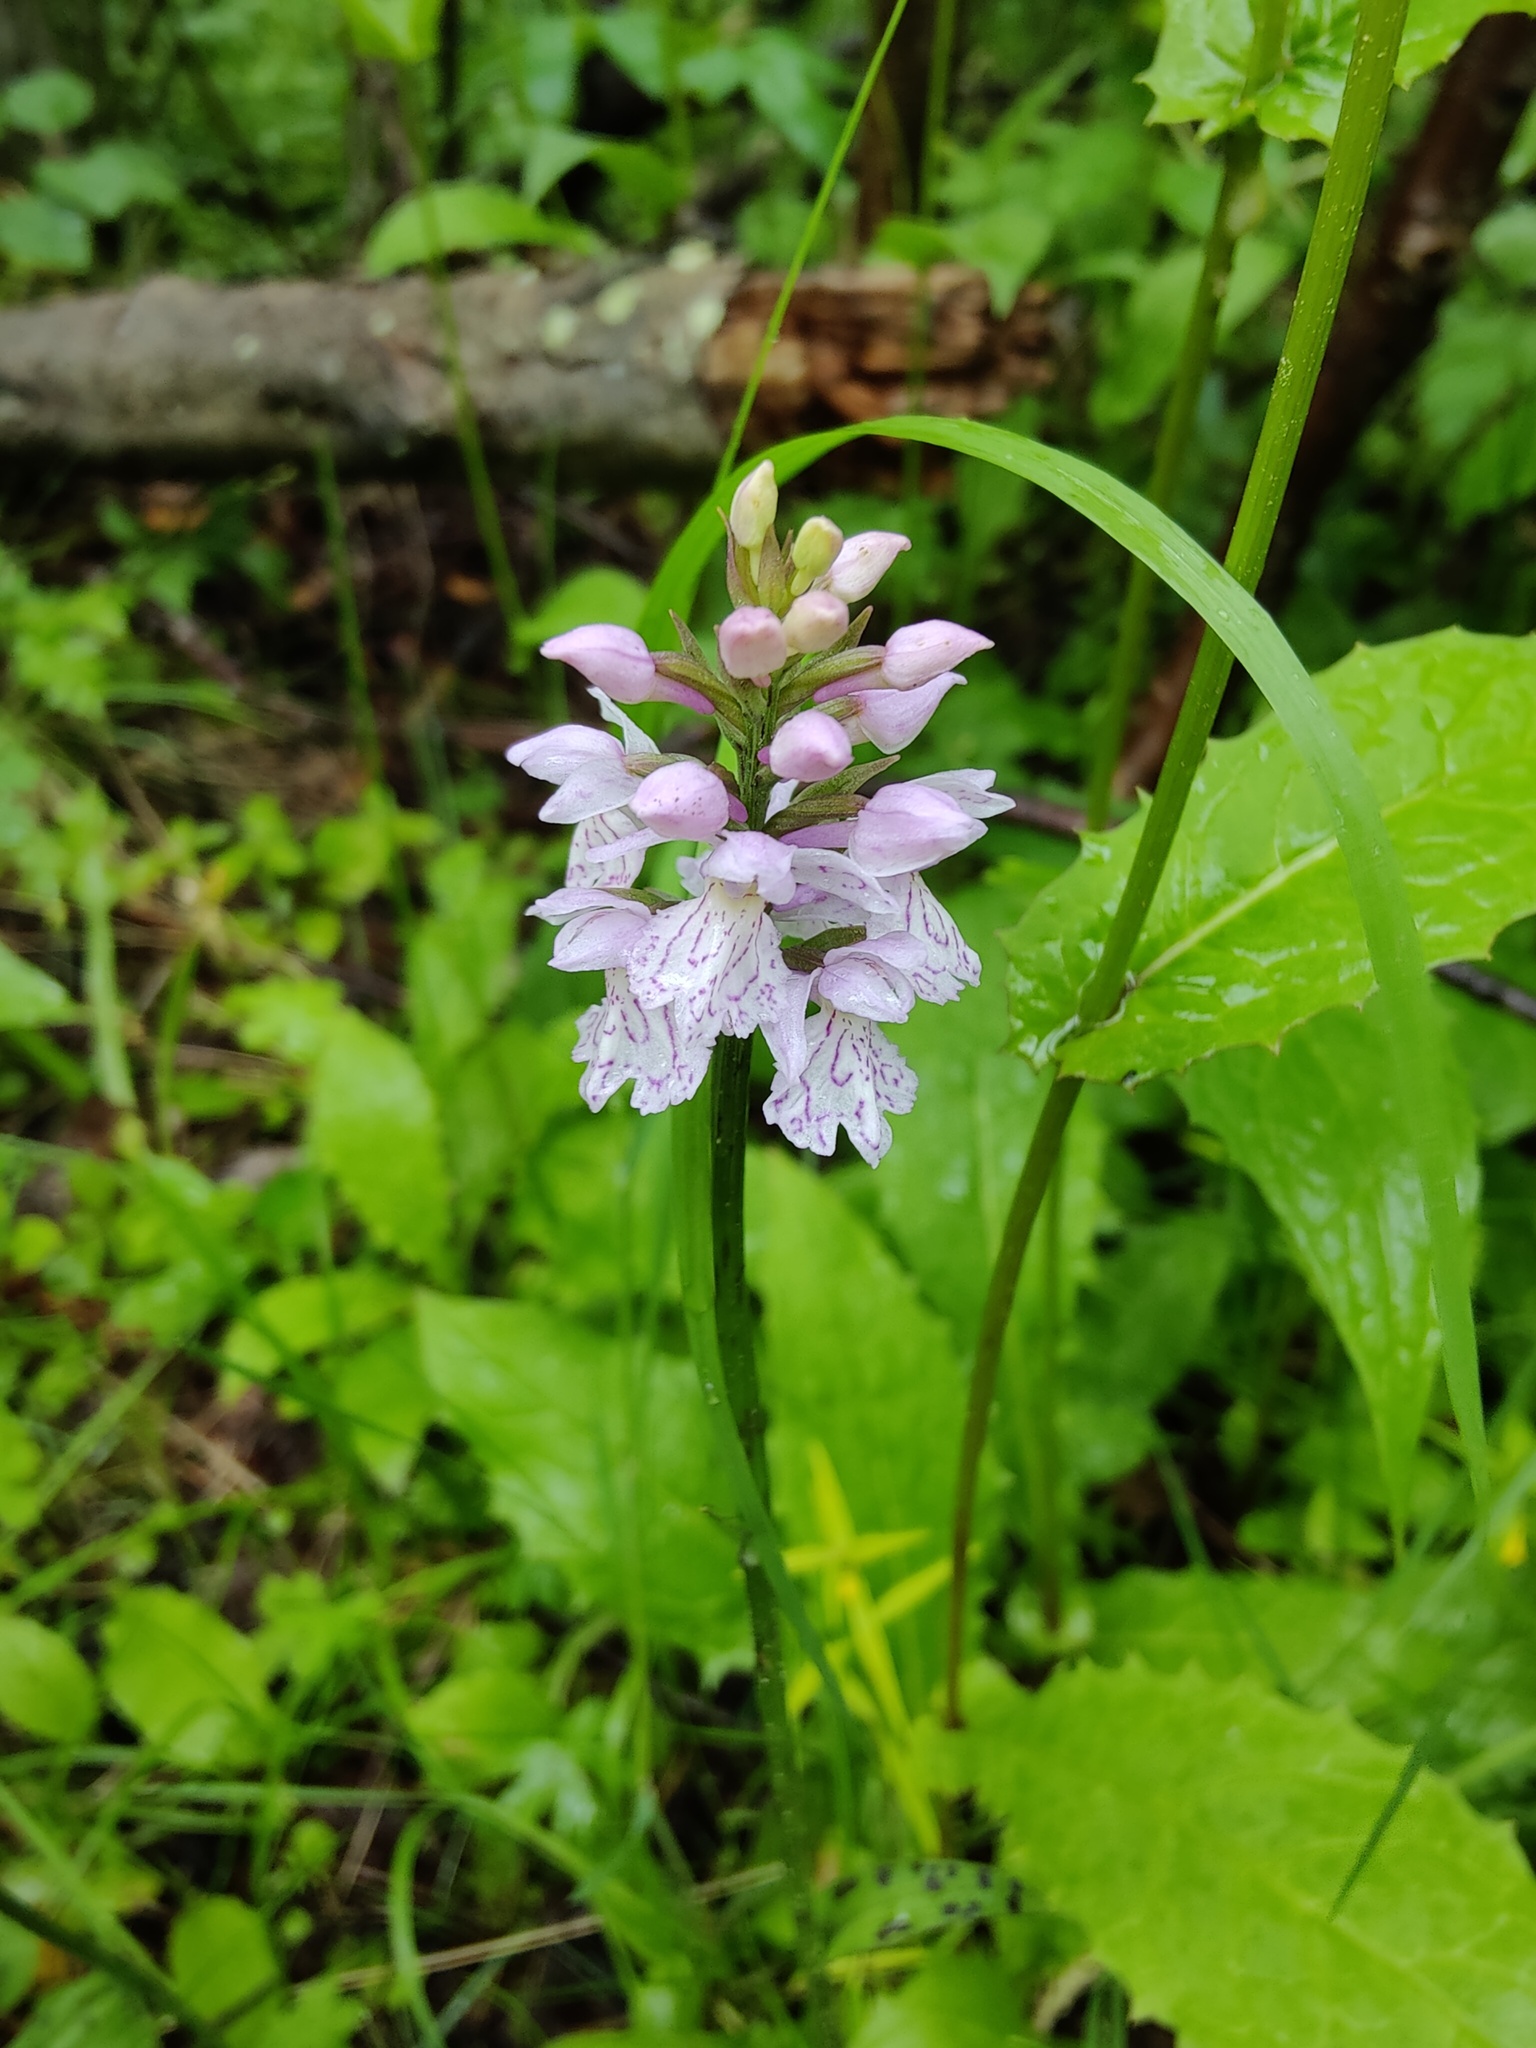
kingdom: Plantae
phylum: Tracheophyta
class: Liliopsida
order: Asparagales
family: Orchidaceae
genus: Dactylorhiza
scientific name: Dactylorhiza maculata
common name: Heath spotted-orchid
